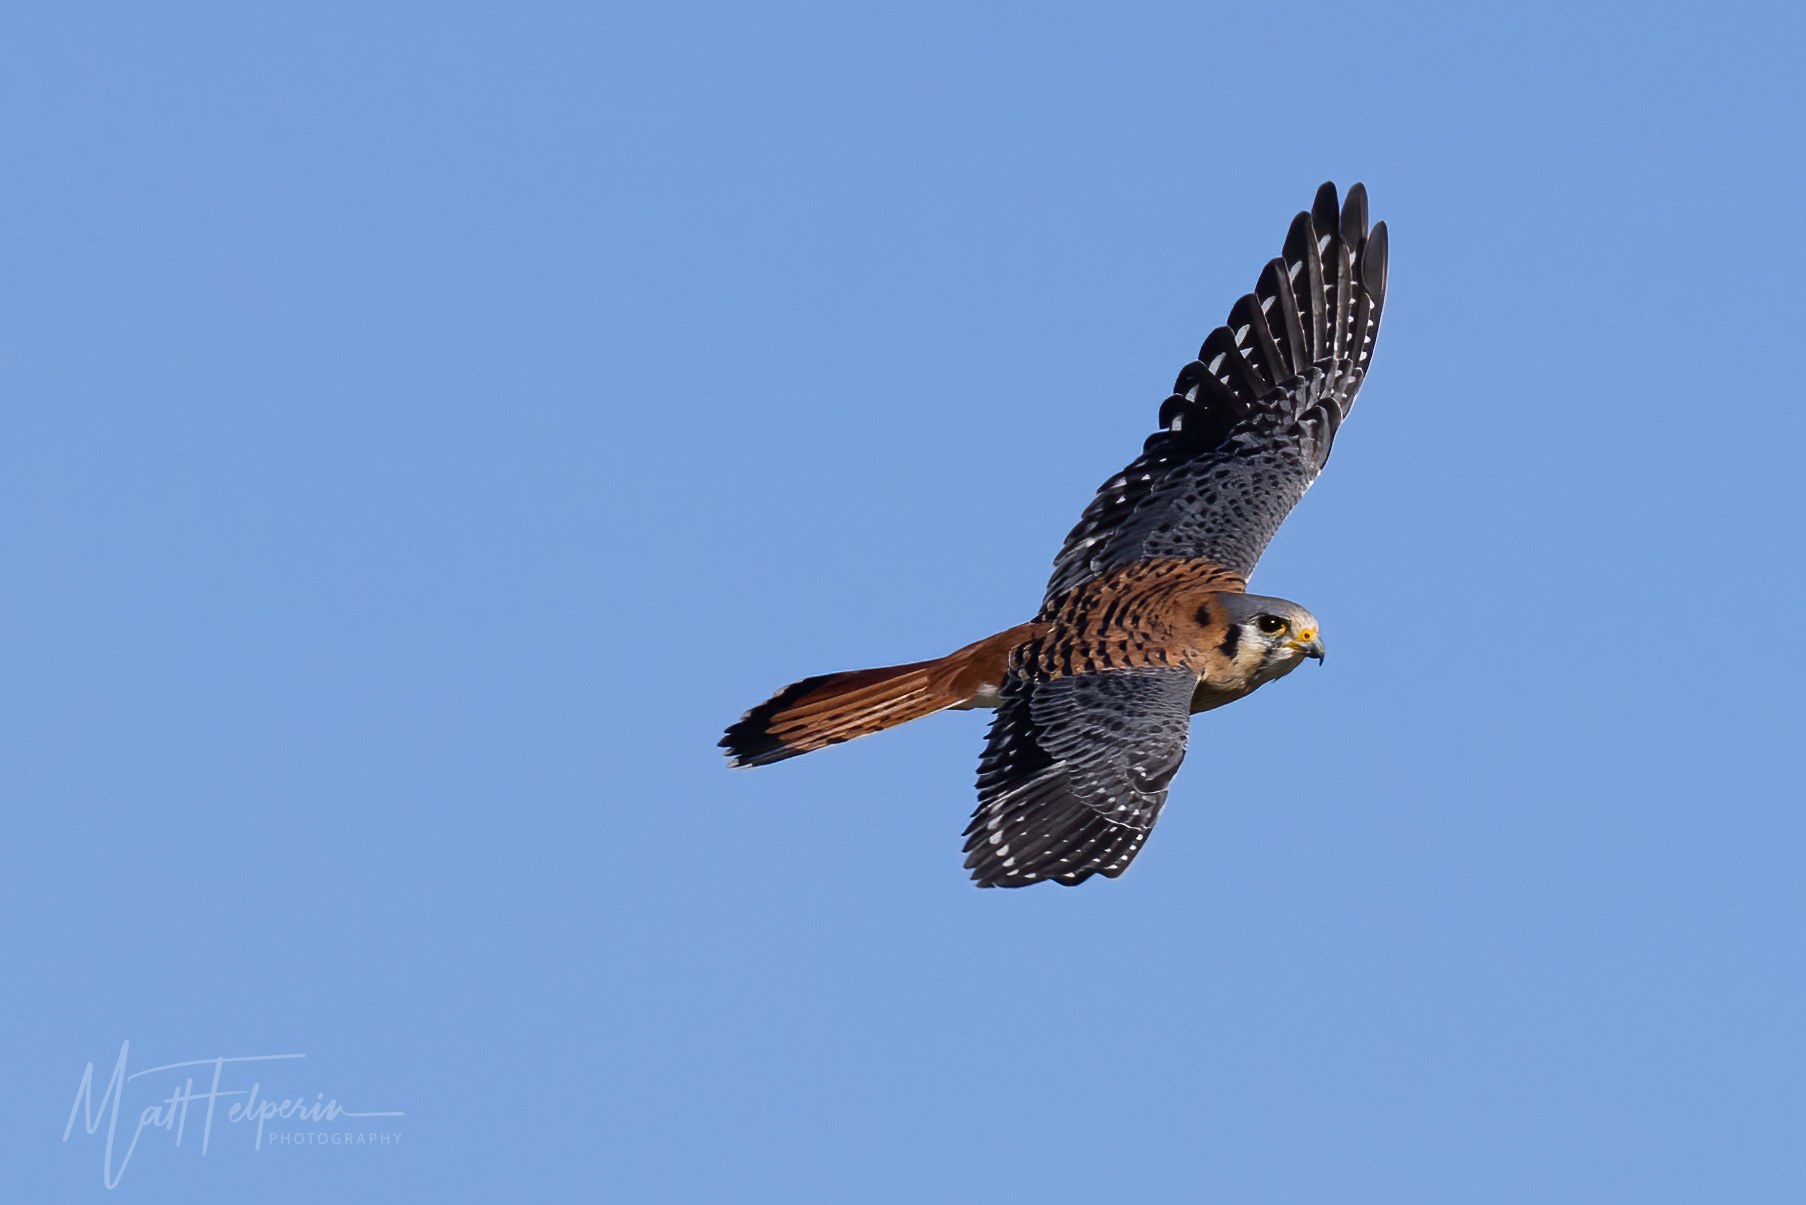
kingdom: Animalia
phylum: Chordata
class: Aves
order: Falconiformes
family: Falconidae
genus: Falco
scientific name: Falco sparverius
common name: American kestrel
